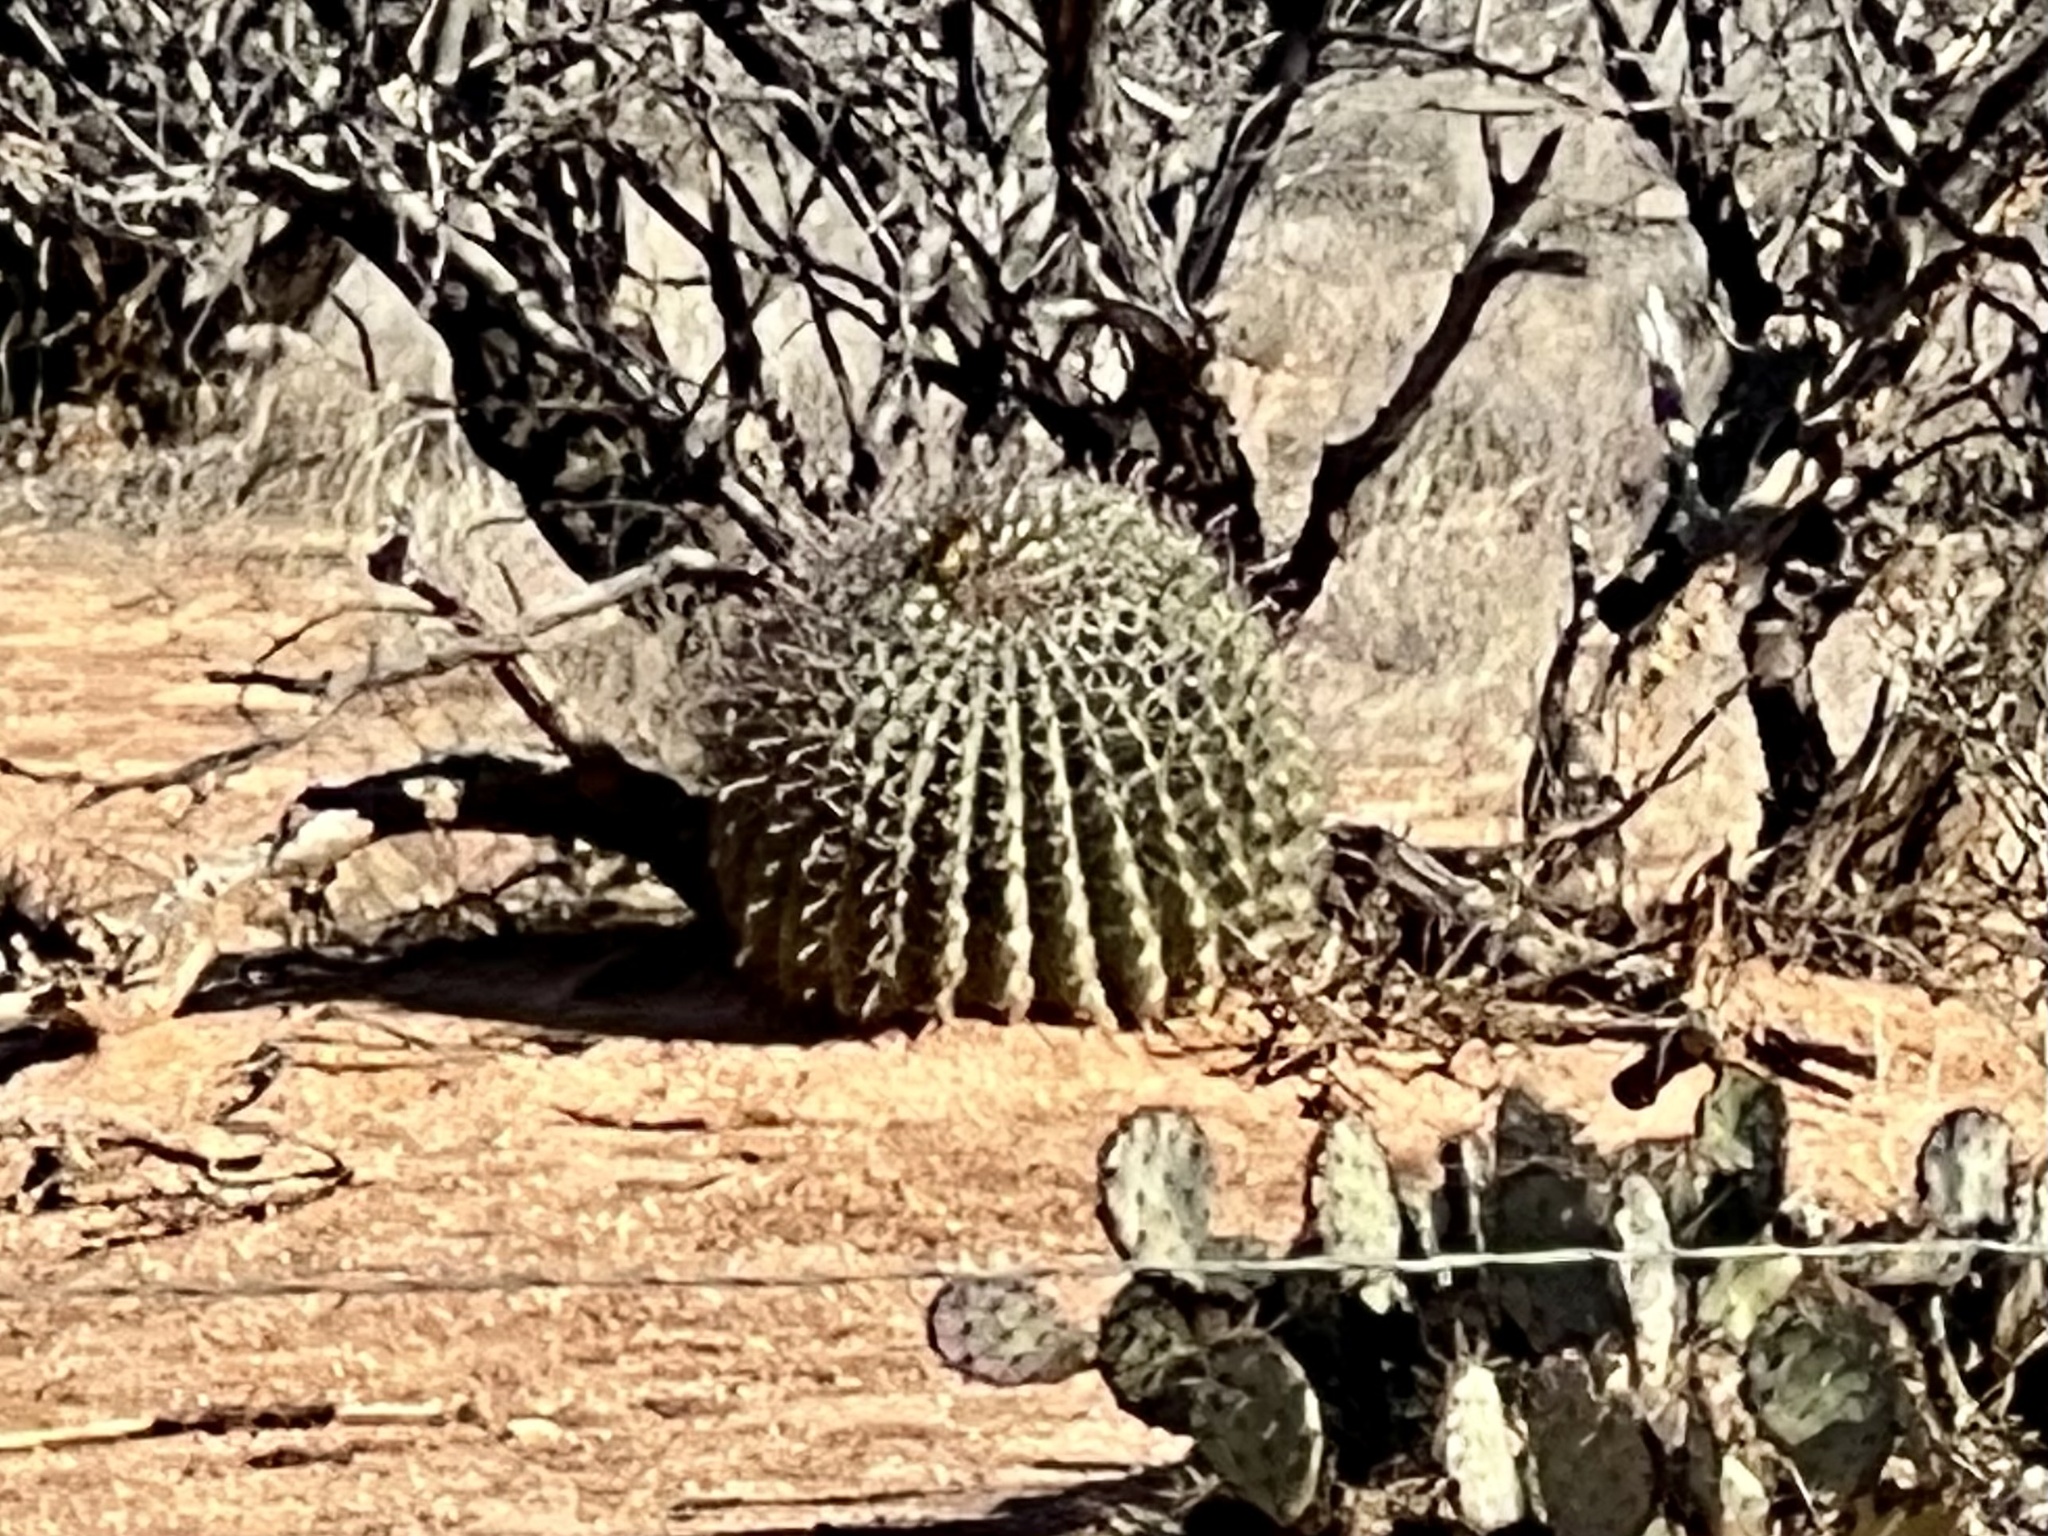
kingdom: Plantae
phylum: Tracheophyta
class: Magnoliopsida
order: Caryophyllales
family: Cactaceae
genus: Ferocactus
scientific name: Ferocactus wislizeni
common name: Candy barrel cactus
